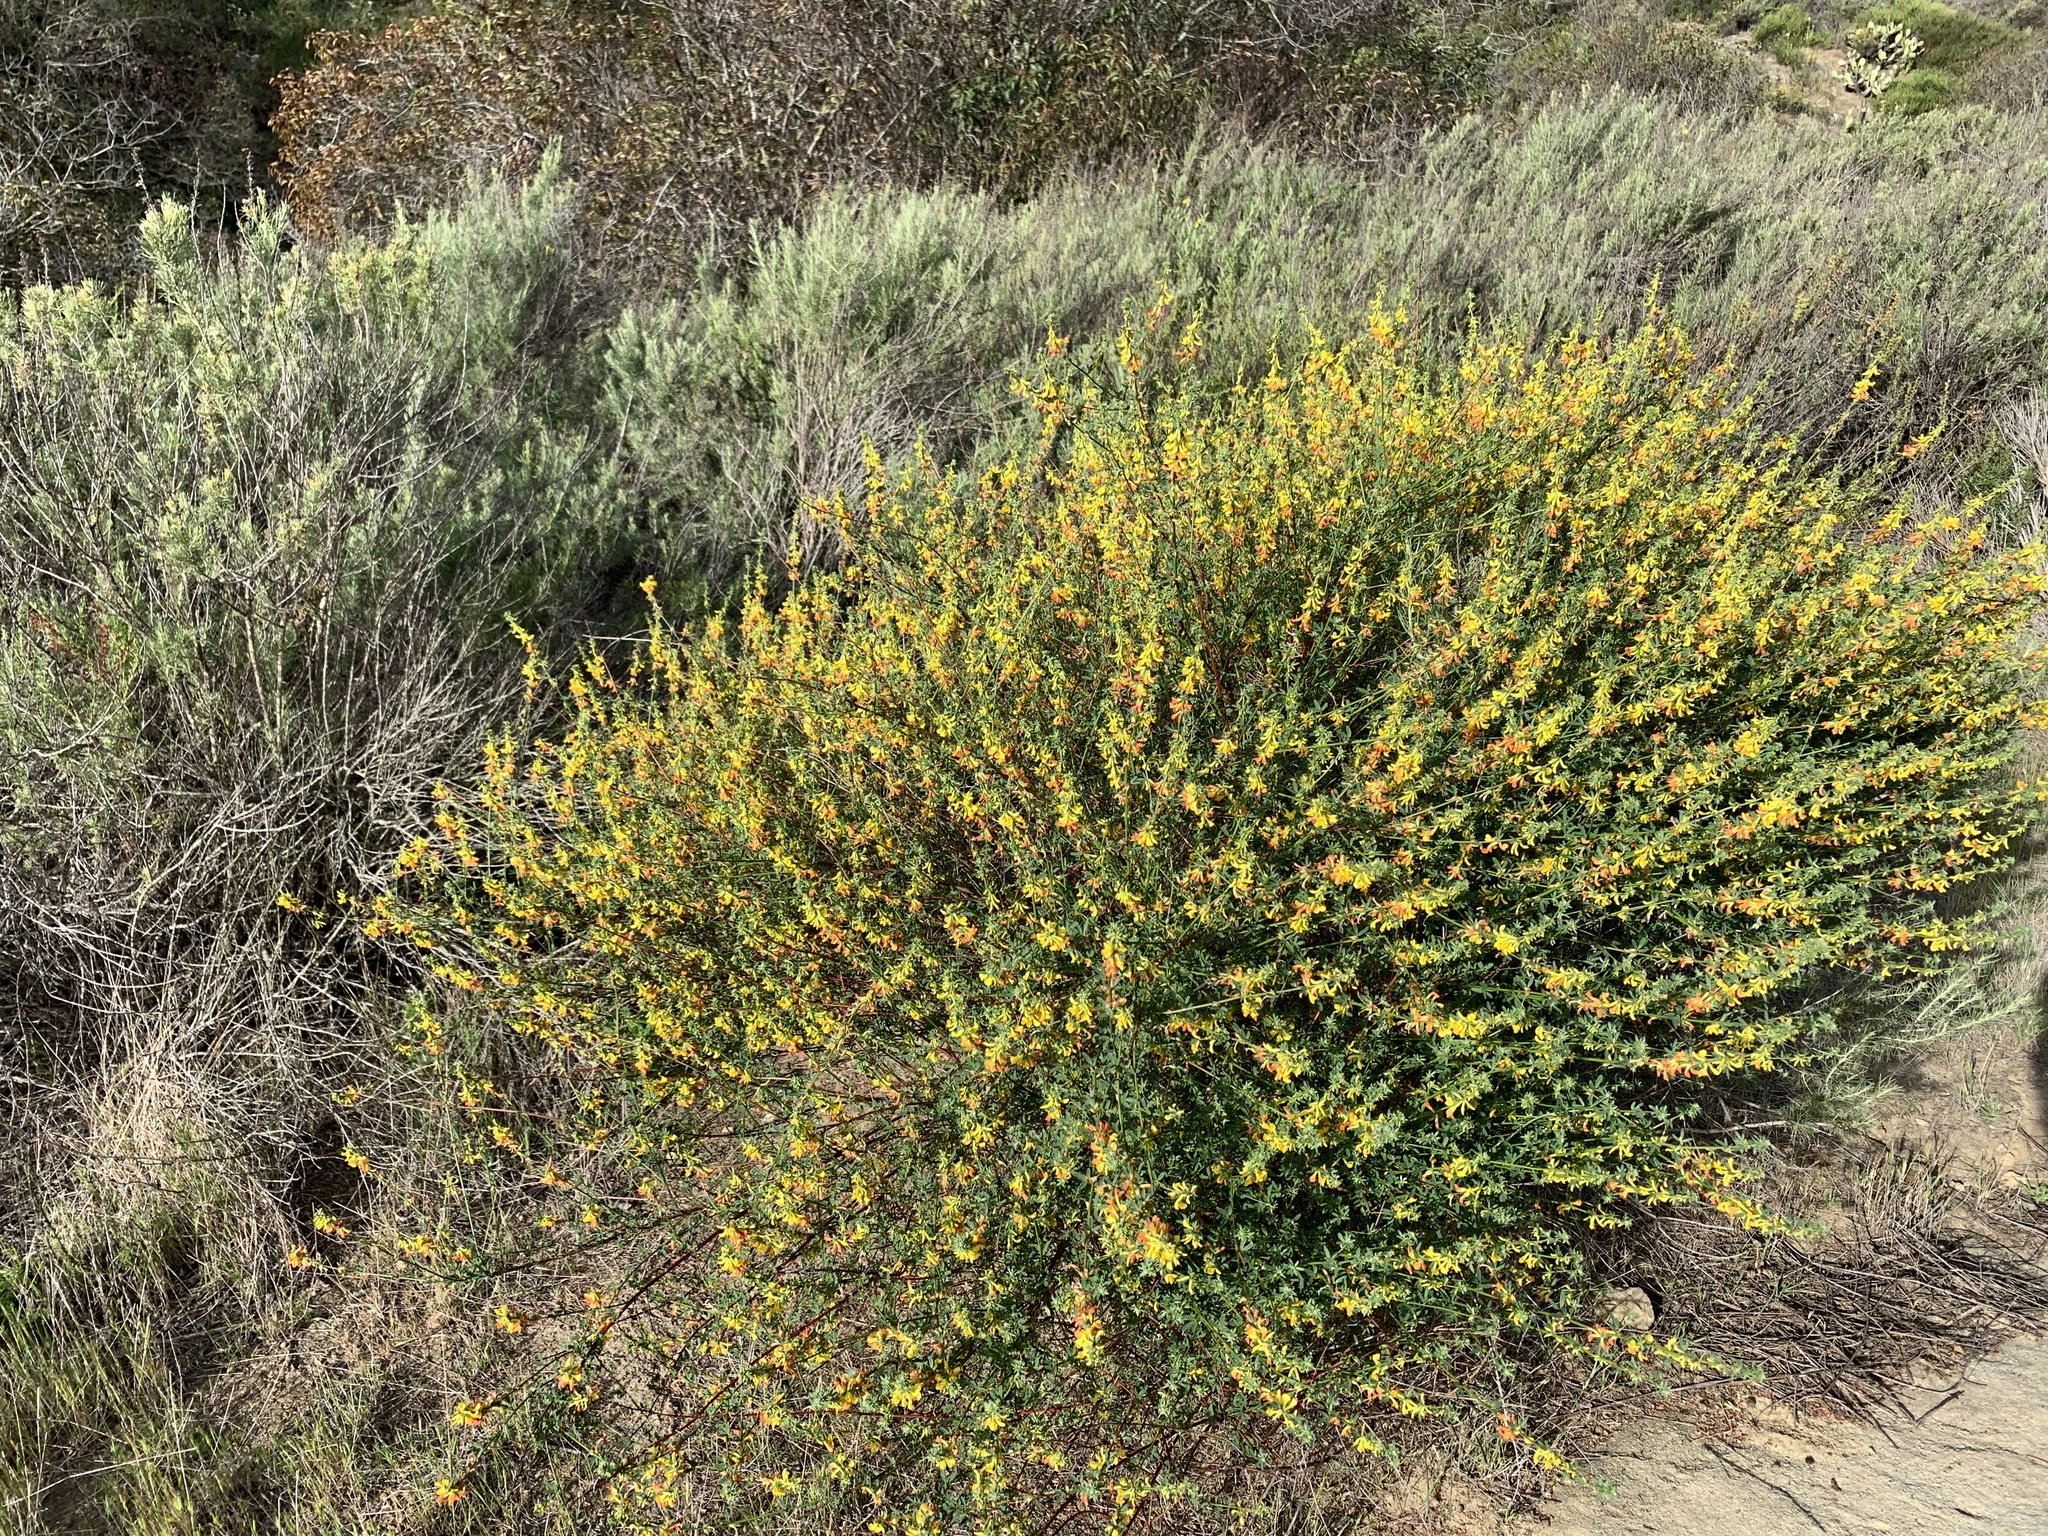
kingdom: Plantae
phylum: Tracheophyta
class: Magnoliopsida
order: Fabales
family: Fabaceae
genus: Acmispon
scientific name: Acmispon glaber
